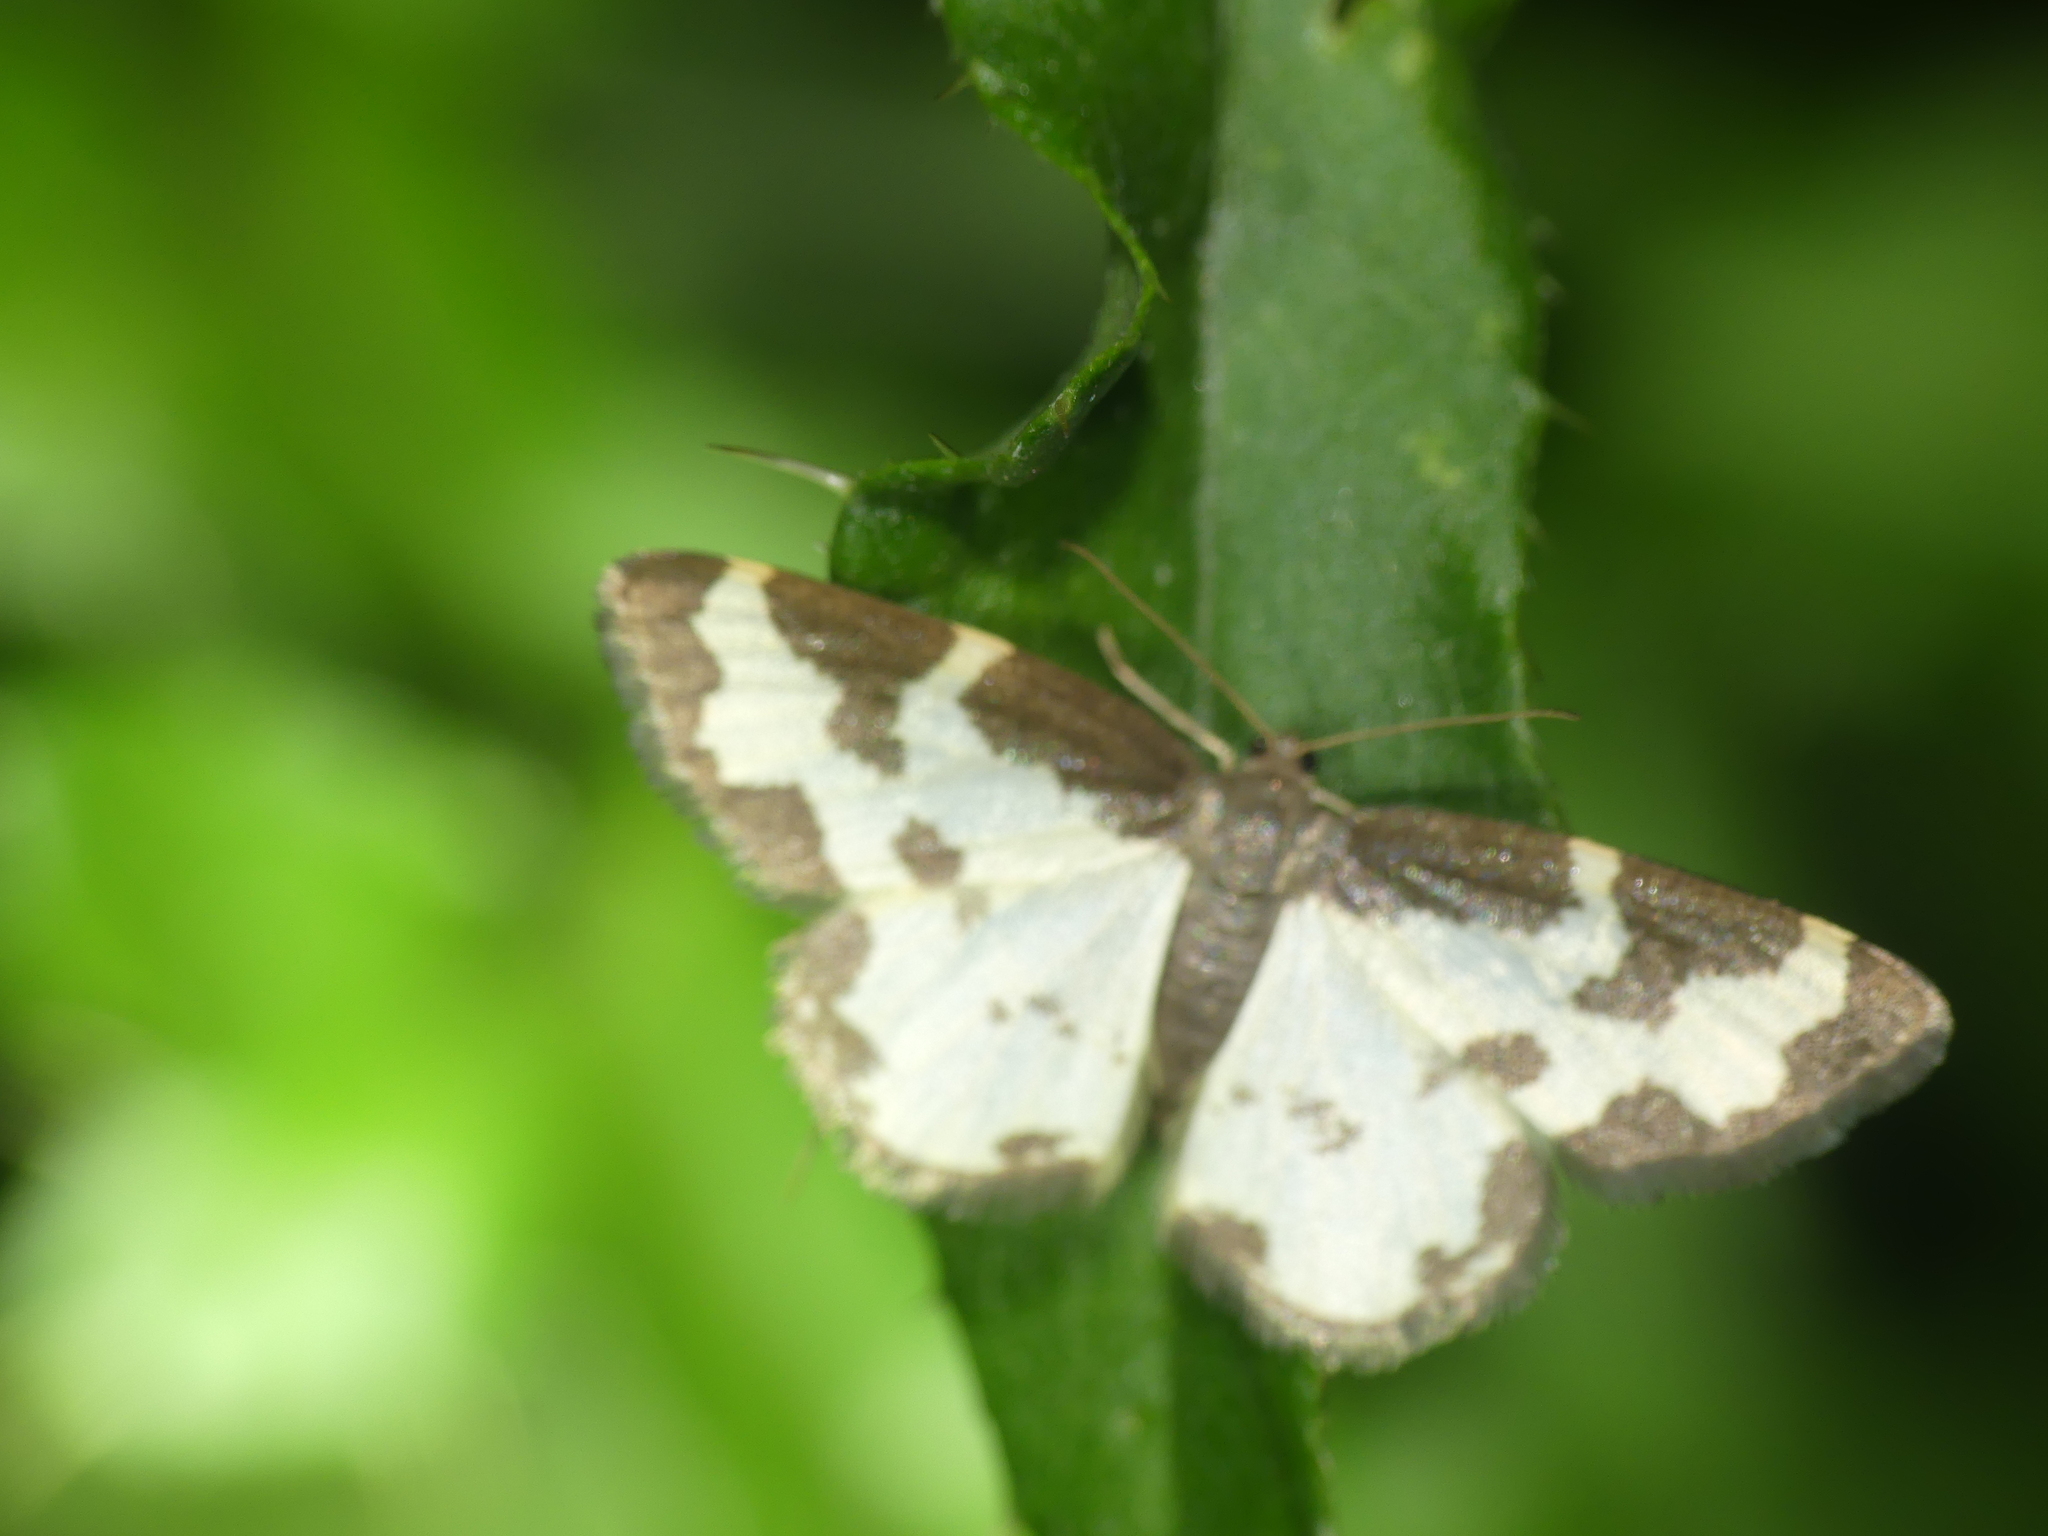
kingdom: Animalia
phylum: Arthropoda
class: Insecta
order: Lepidoptera
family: Geometridae
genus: Lomaspilis
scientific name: Lomaspilis marginata
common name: Clouded border
